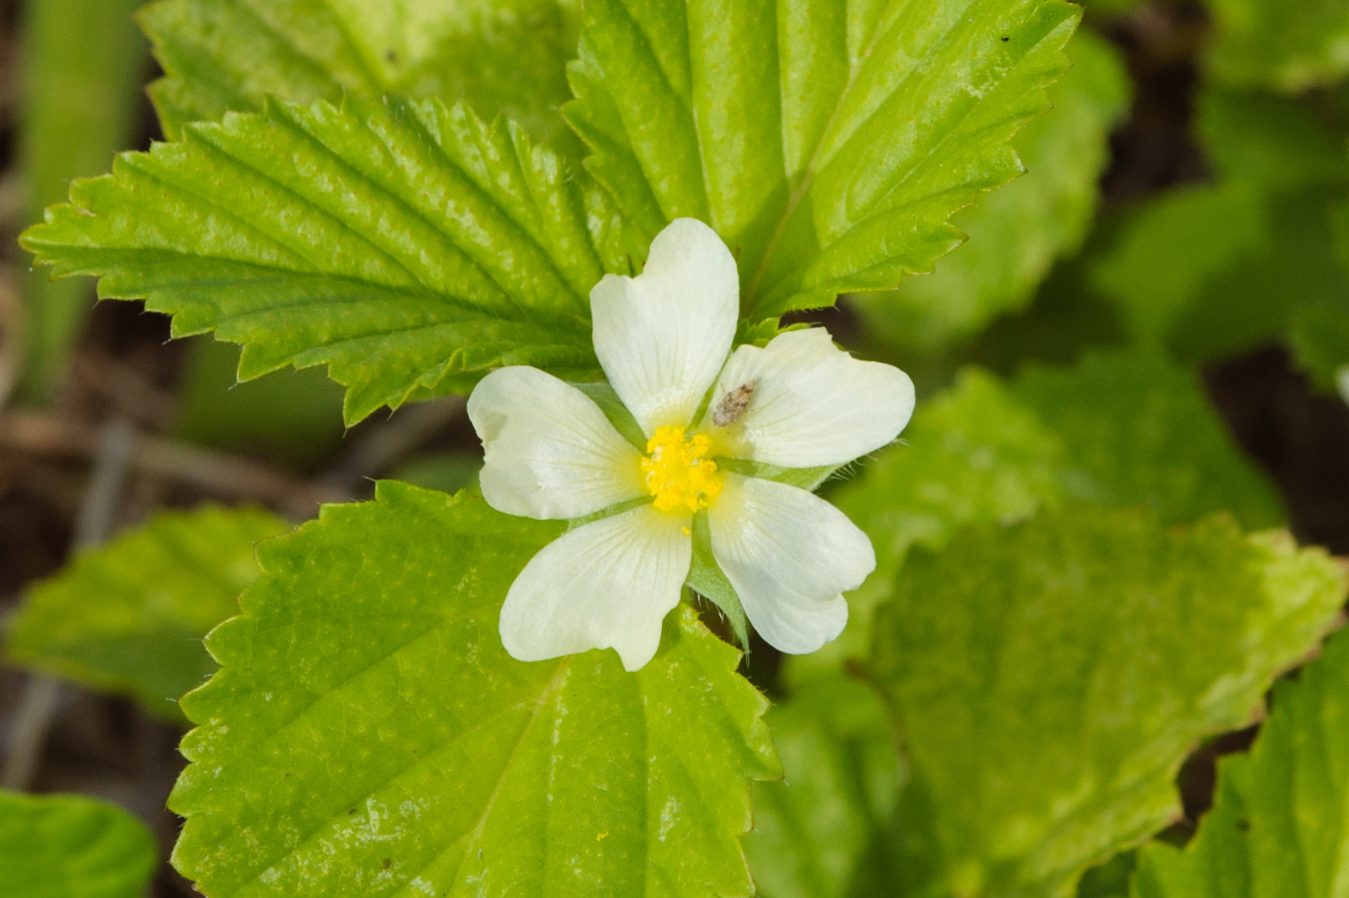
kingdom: Plantae
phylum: Tracheophyta
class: Magnoliopsida
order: Malvales
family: Malvaceae
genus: Malvastrum
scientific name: Malvastrum coromandelianum
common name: Threelobe false mallow
